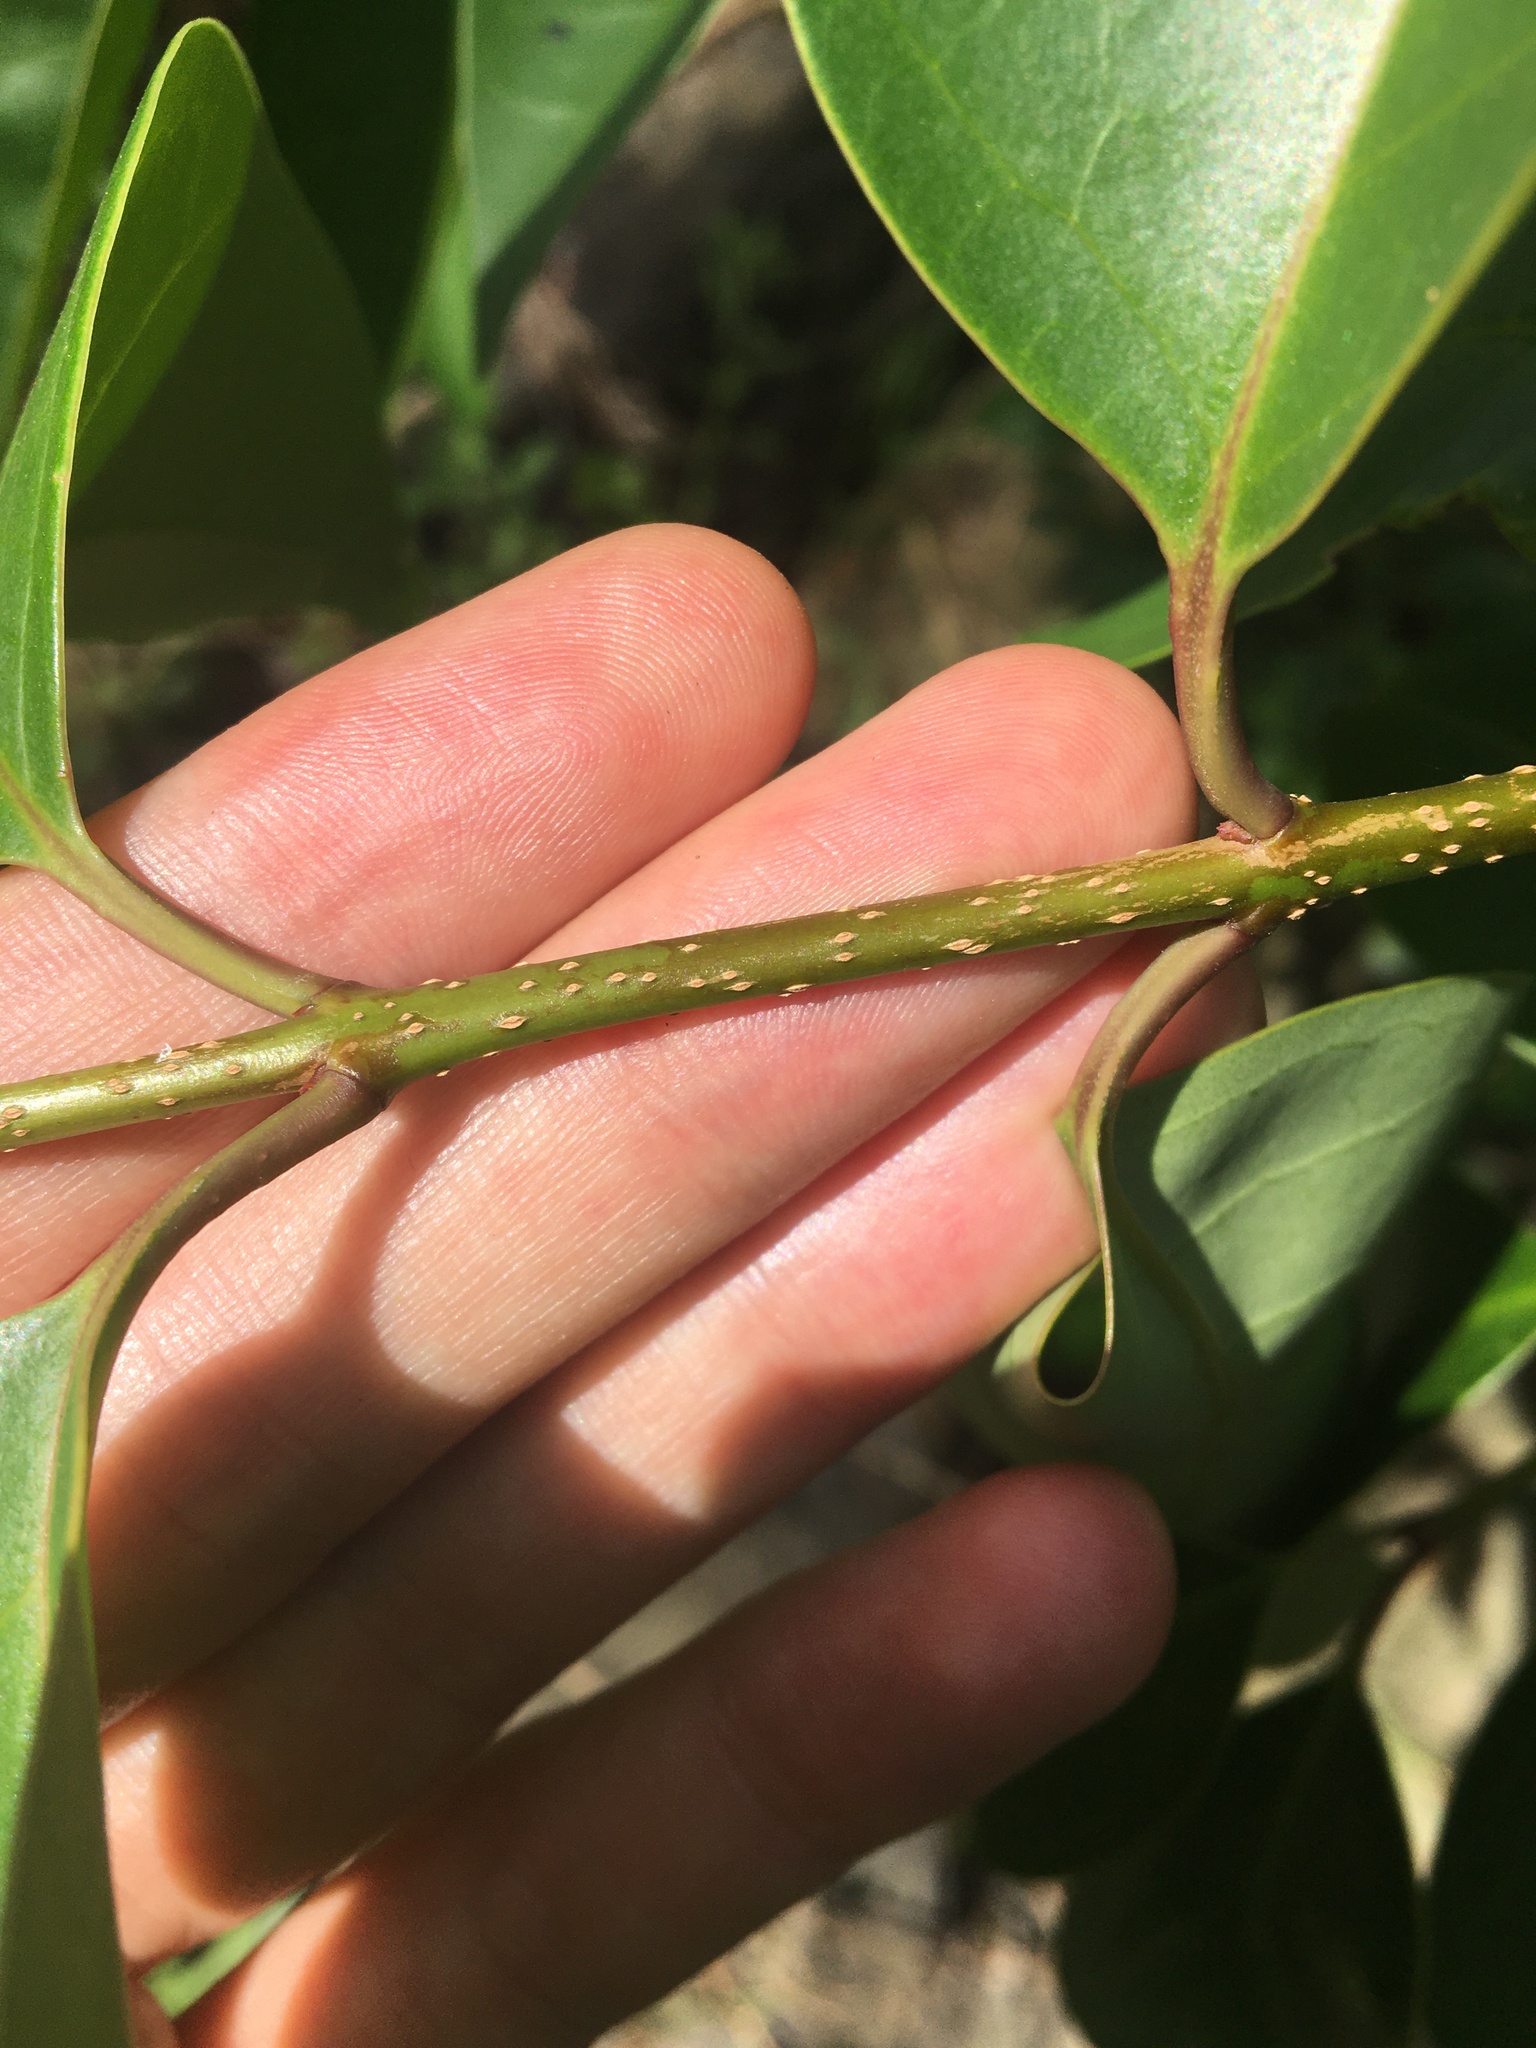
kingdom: Plantae
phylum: Tracheophyta
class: Magnoliopsida
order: Lamiales
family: Oleaceae
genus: Ligustrum
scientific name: Ligustrum lucidum
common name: Glossy privet
